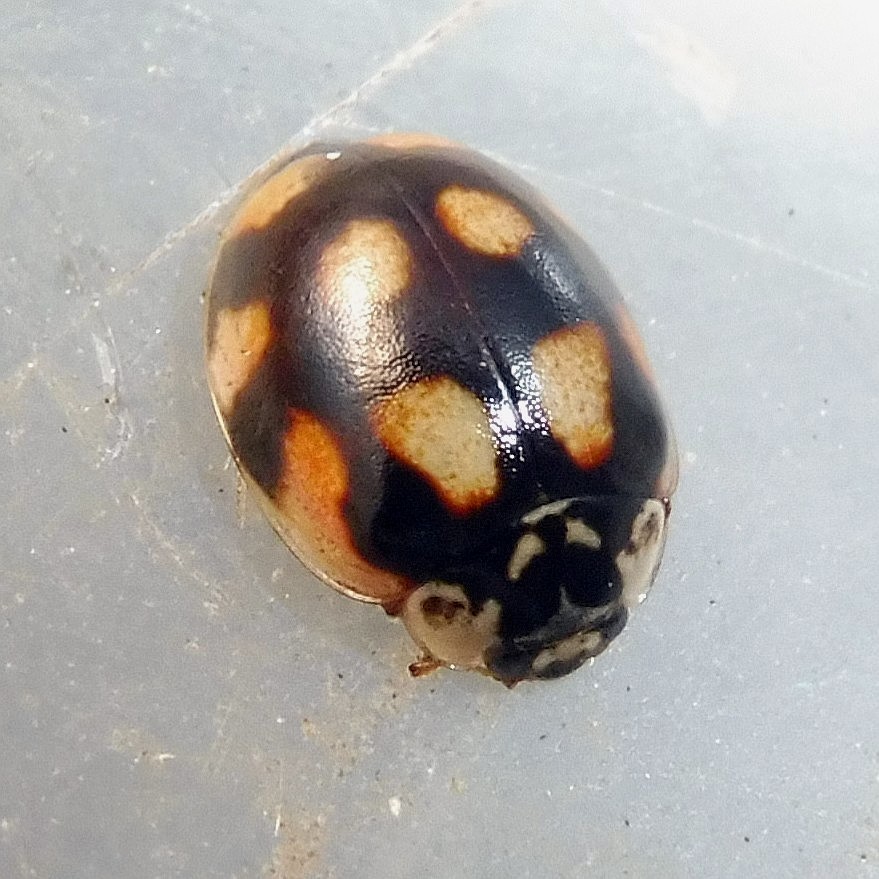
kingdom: Animalia
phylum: Arthropoda
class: Insecta
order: Coleoptera
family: Coccinellidae
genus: Adalia
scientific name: Adalia decempunctata
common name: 10-spot ladybird
